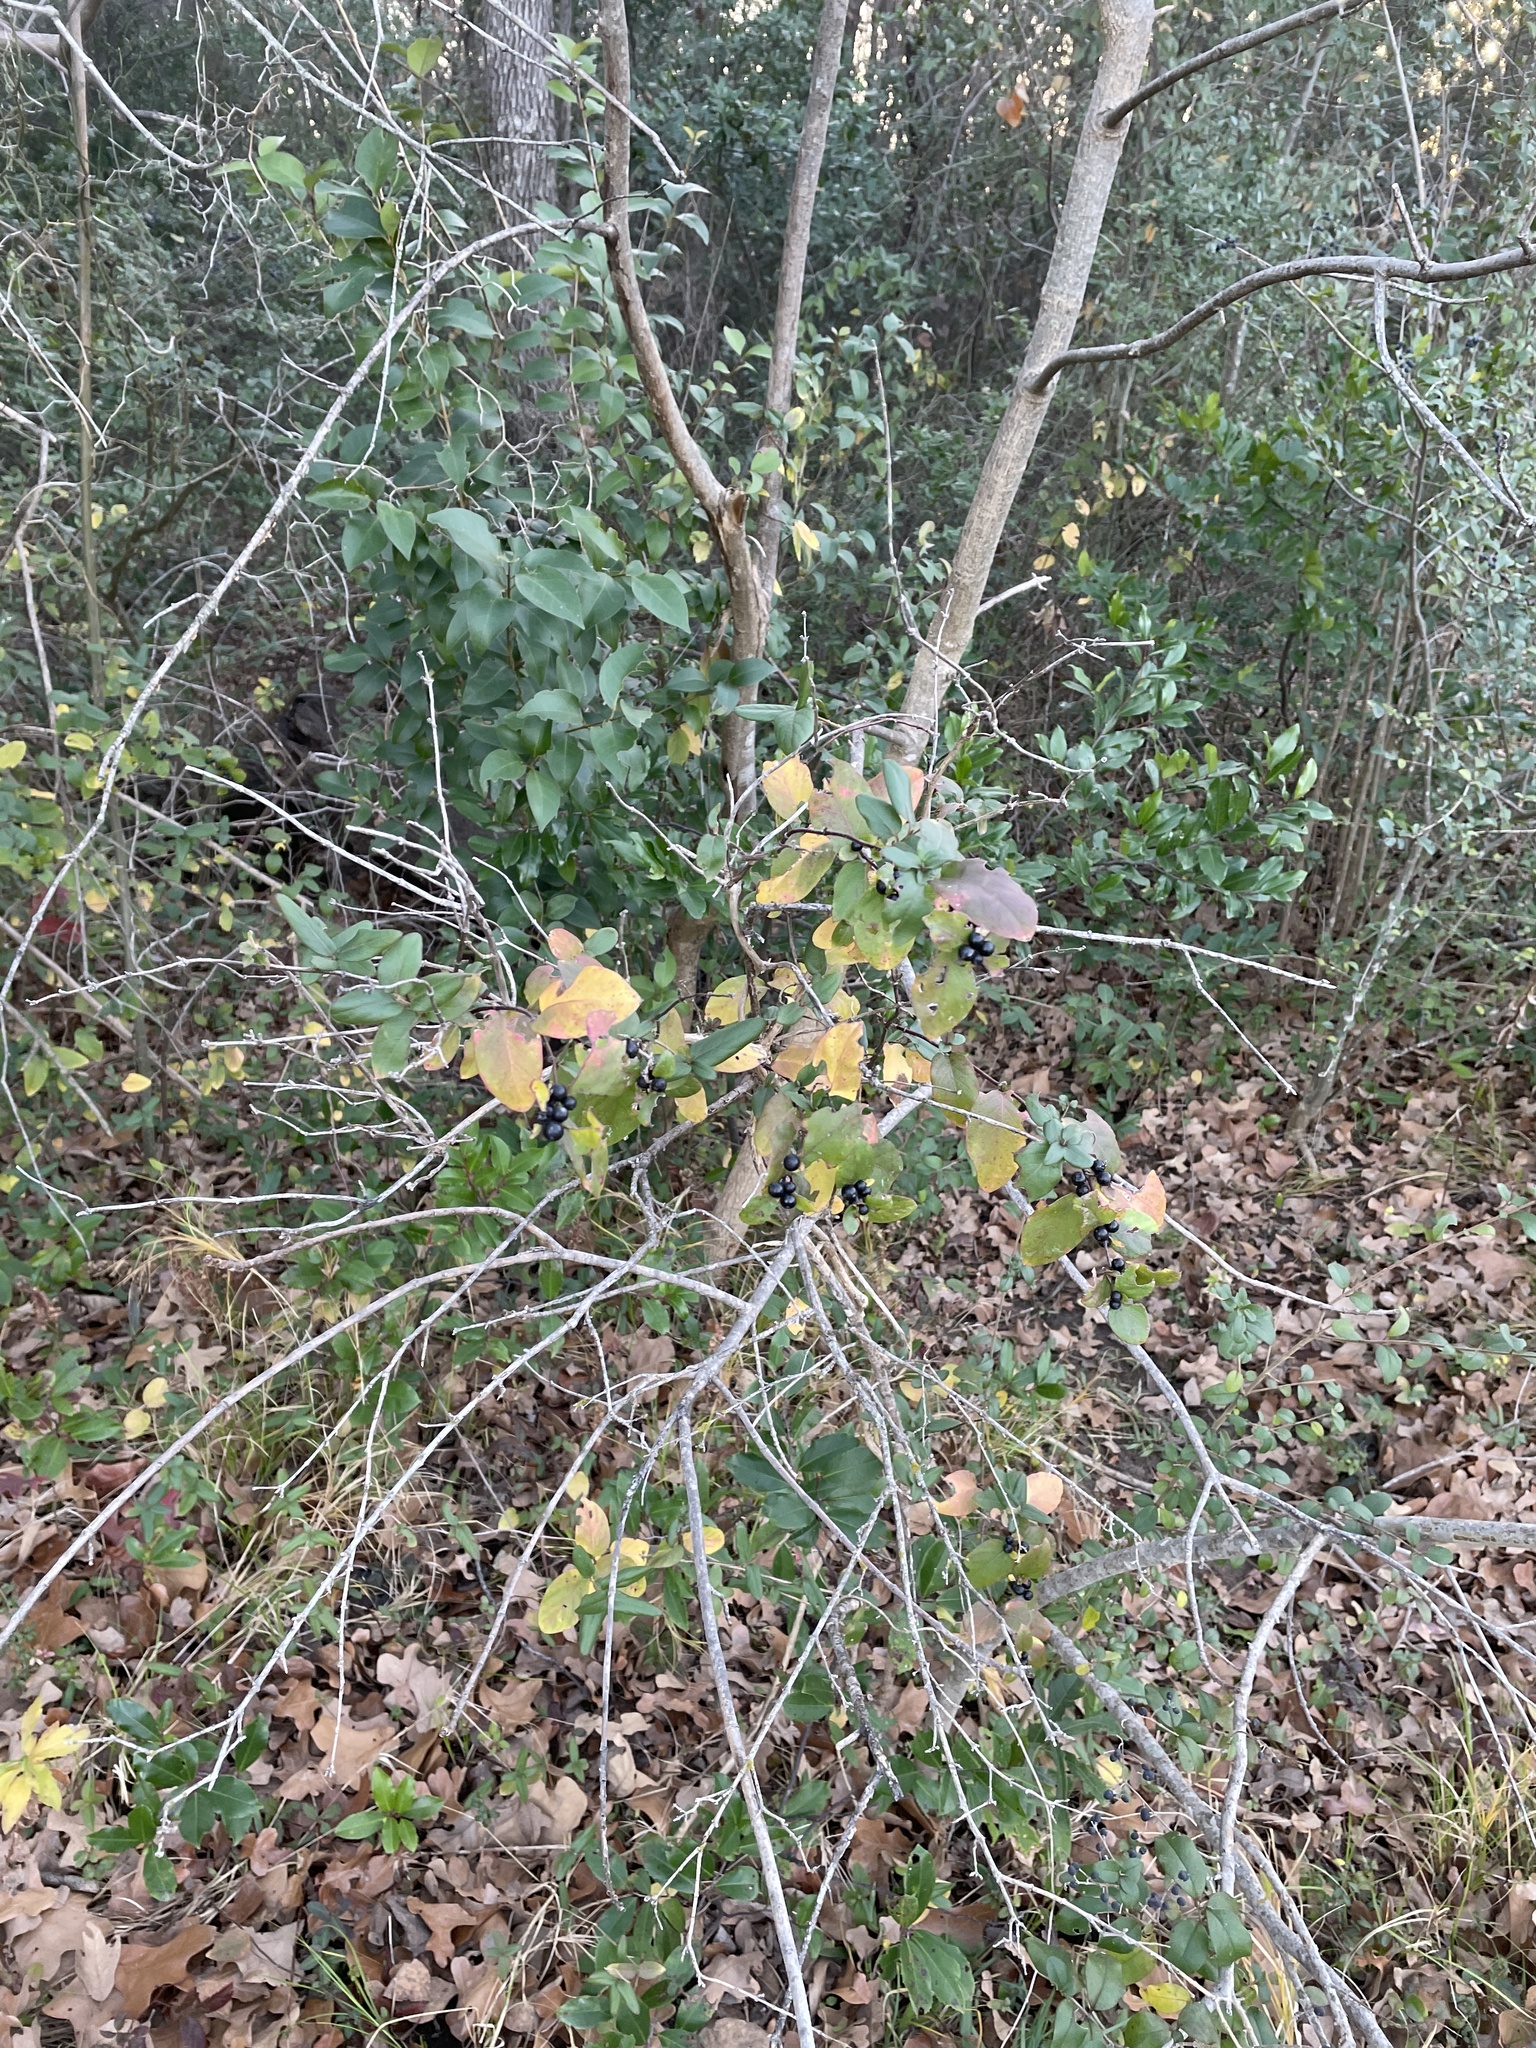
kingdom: Plantae
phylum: Tracheophyta
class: Magnoliopsida
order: Dipsacales
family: Caprifoliaceae
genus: Lonicera
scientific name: Lonicera japonica
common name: Japanese honeysuckle
